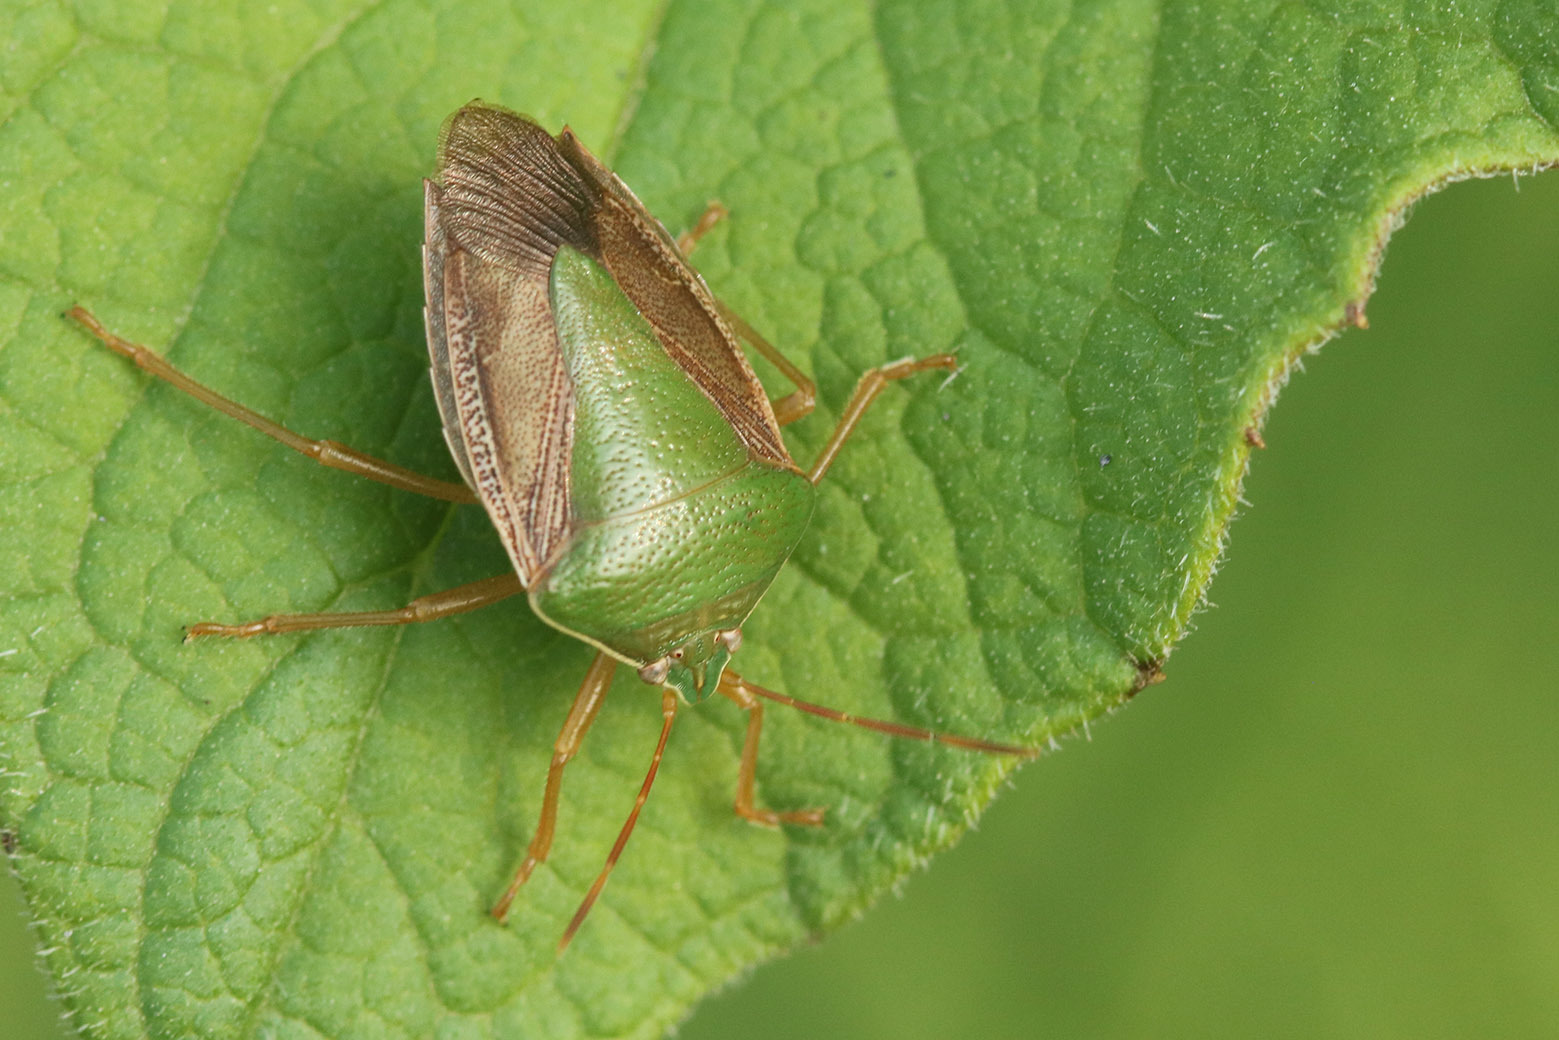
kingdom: Animalia
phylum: Arthropoda
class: Insecta
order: Hemiptera
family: Pentatomidae
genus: Edessa
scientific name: Edessa meditabunda
